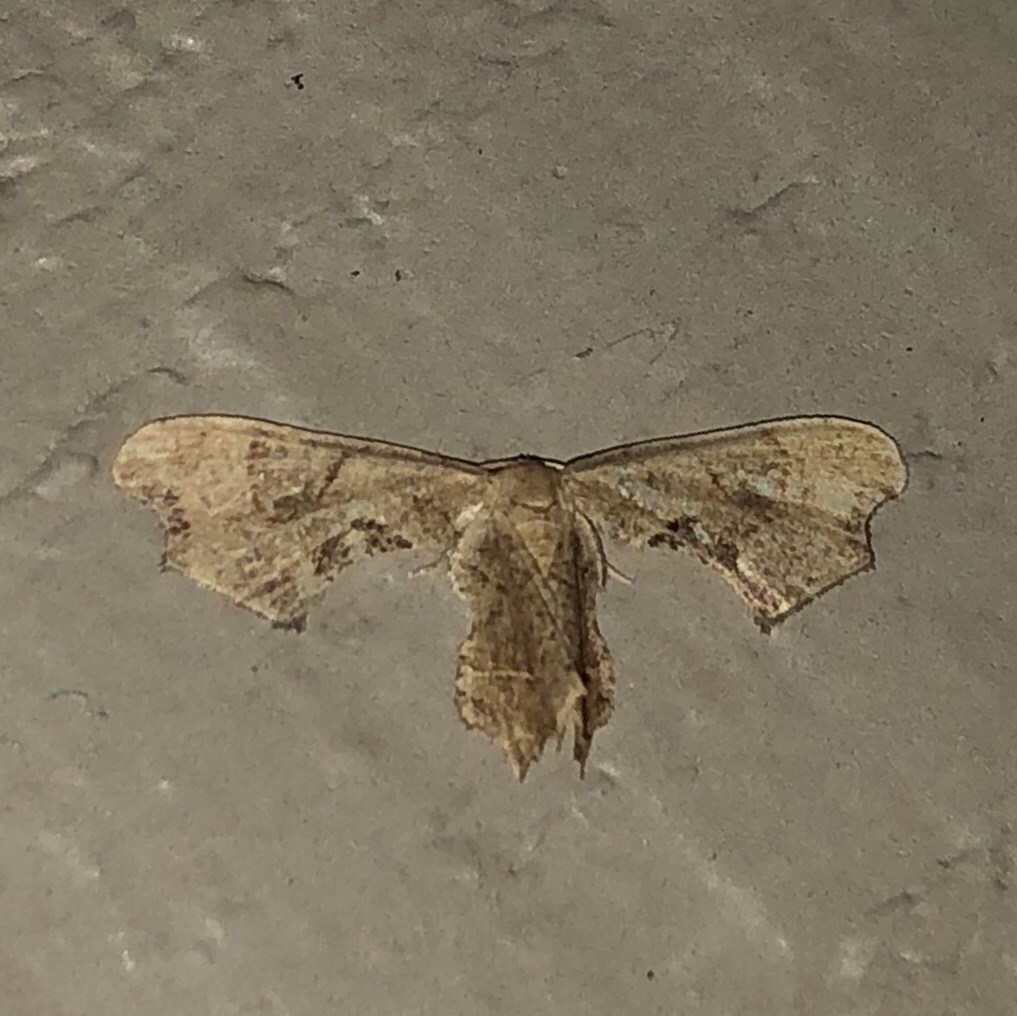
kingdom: Animalia
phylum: Arthropoda
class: Insecta
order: Lepidoptera
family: Uraniidae
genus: Epiplema
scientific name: Epiplema Calledapteryx dryopterata
